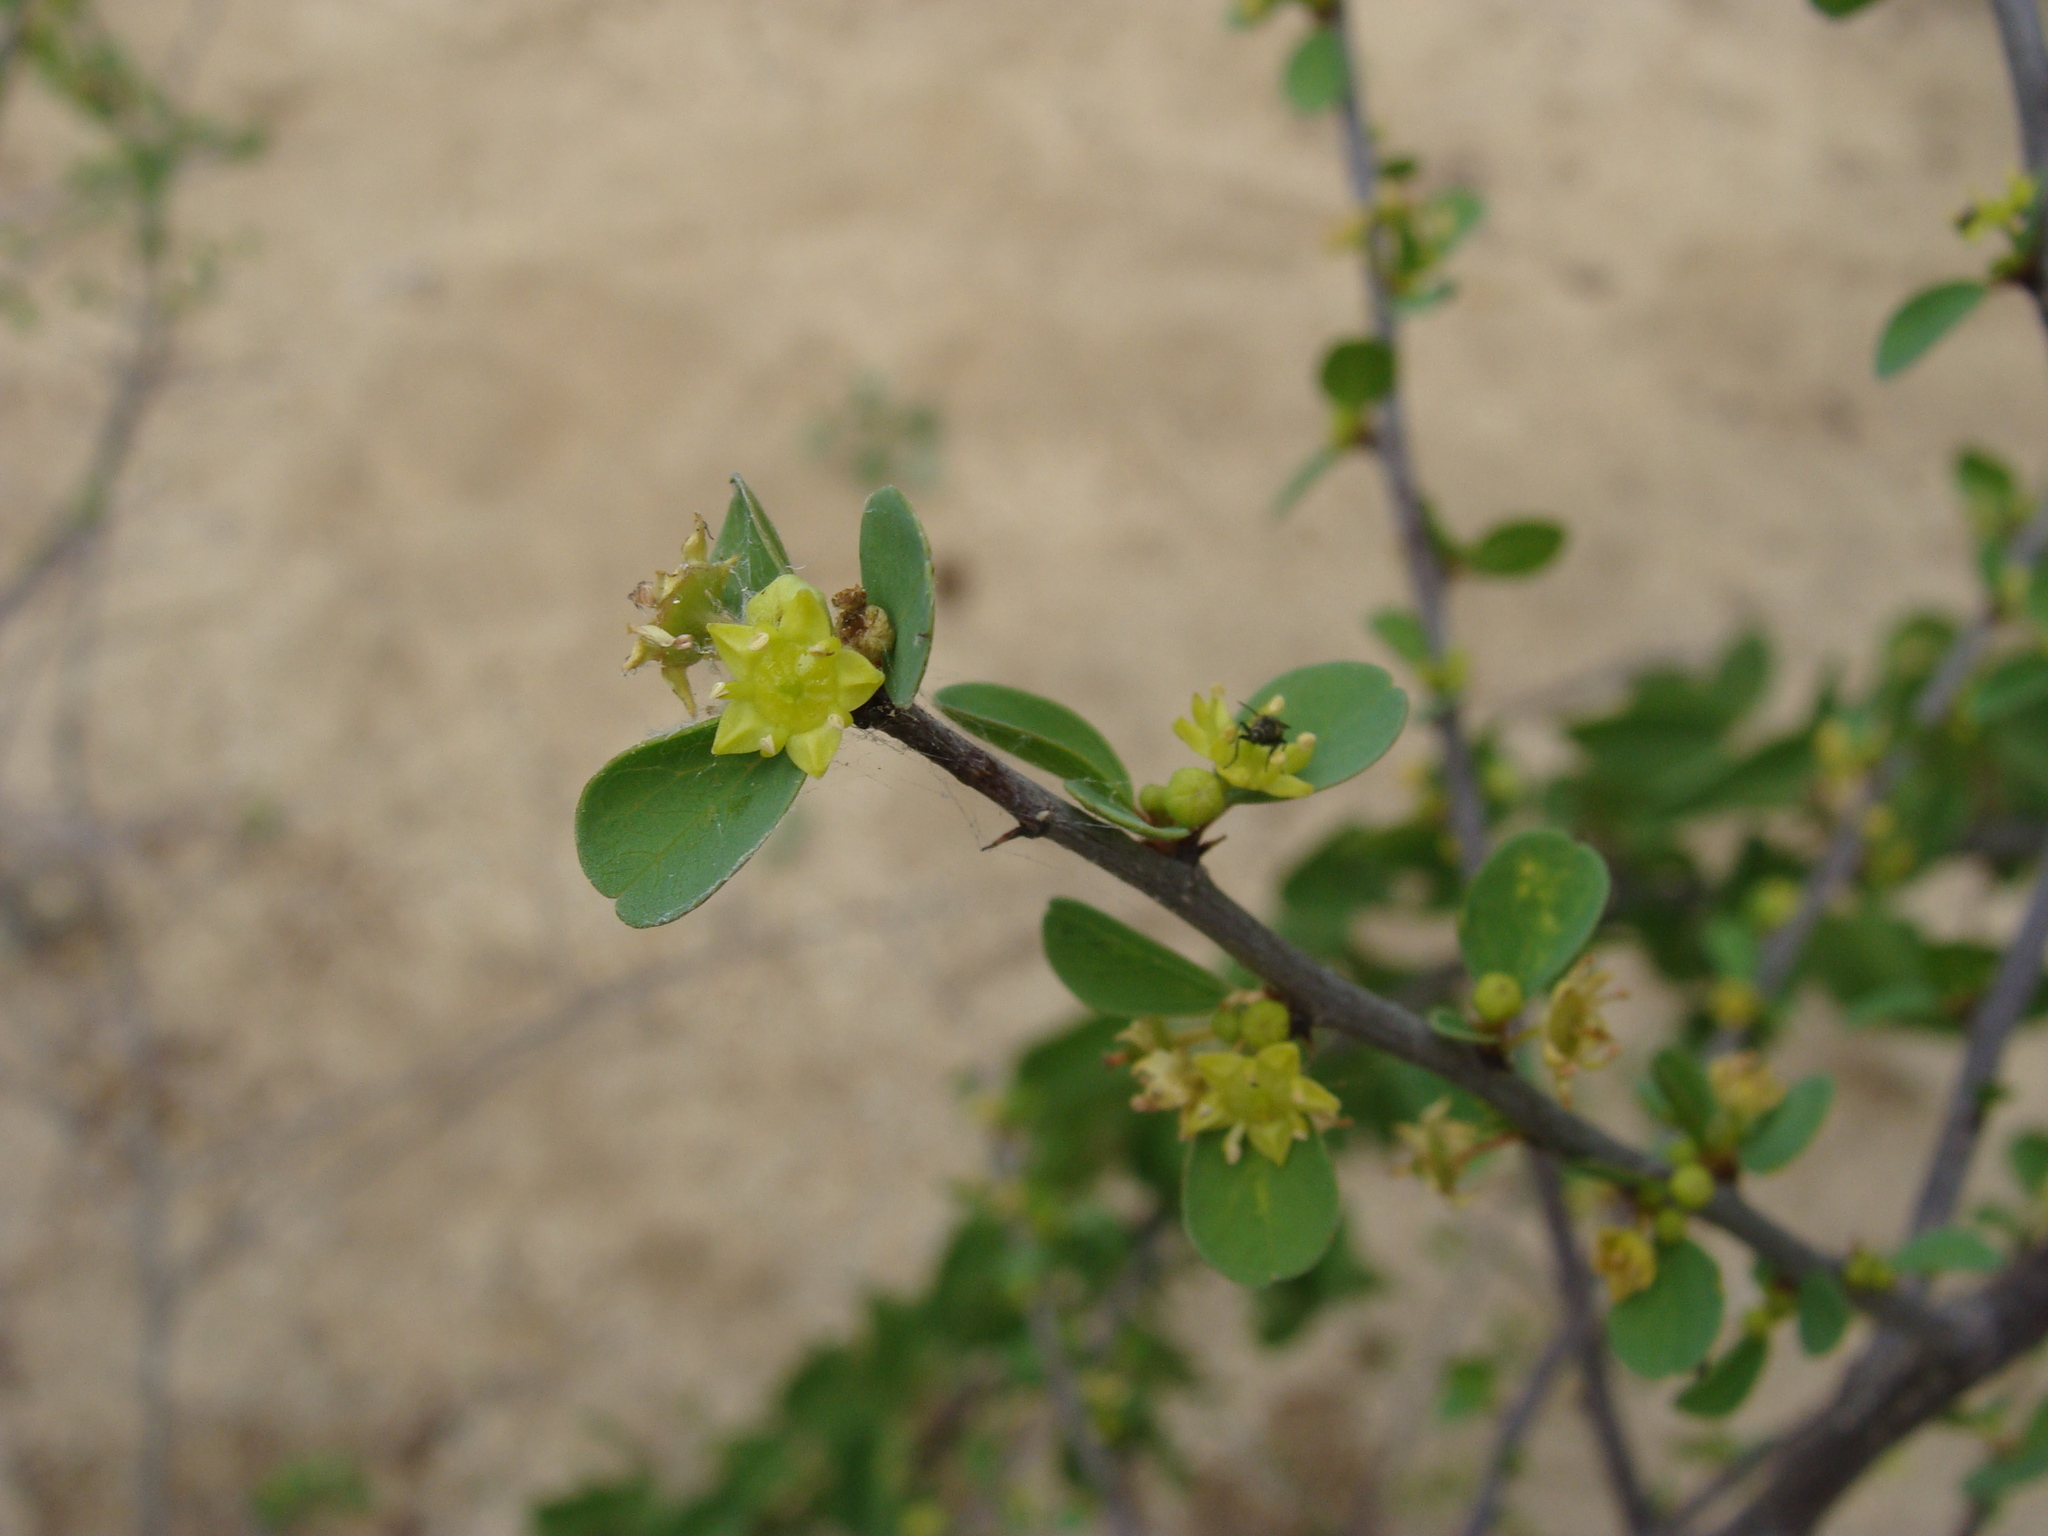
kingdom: Plantae
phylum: Tracheophyta
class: Magnoliopsida
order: Rosales
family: Rhamnaceae
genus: Colubrina
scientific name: Colubrina viridis
